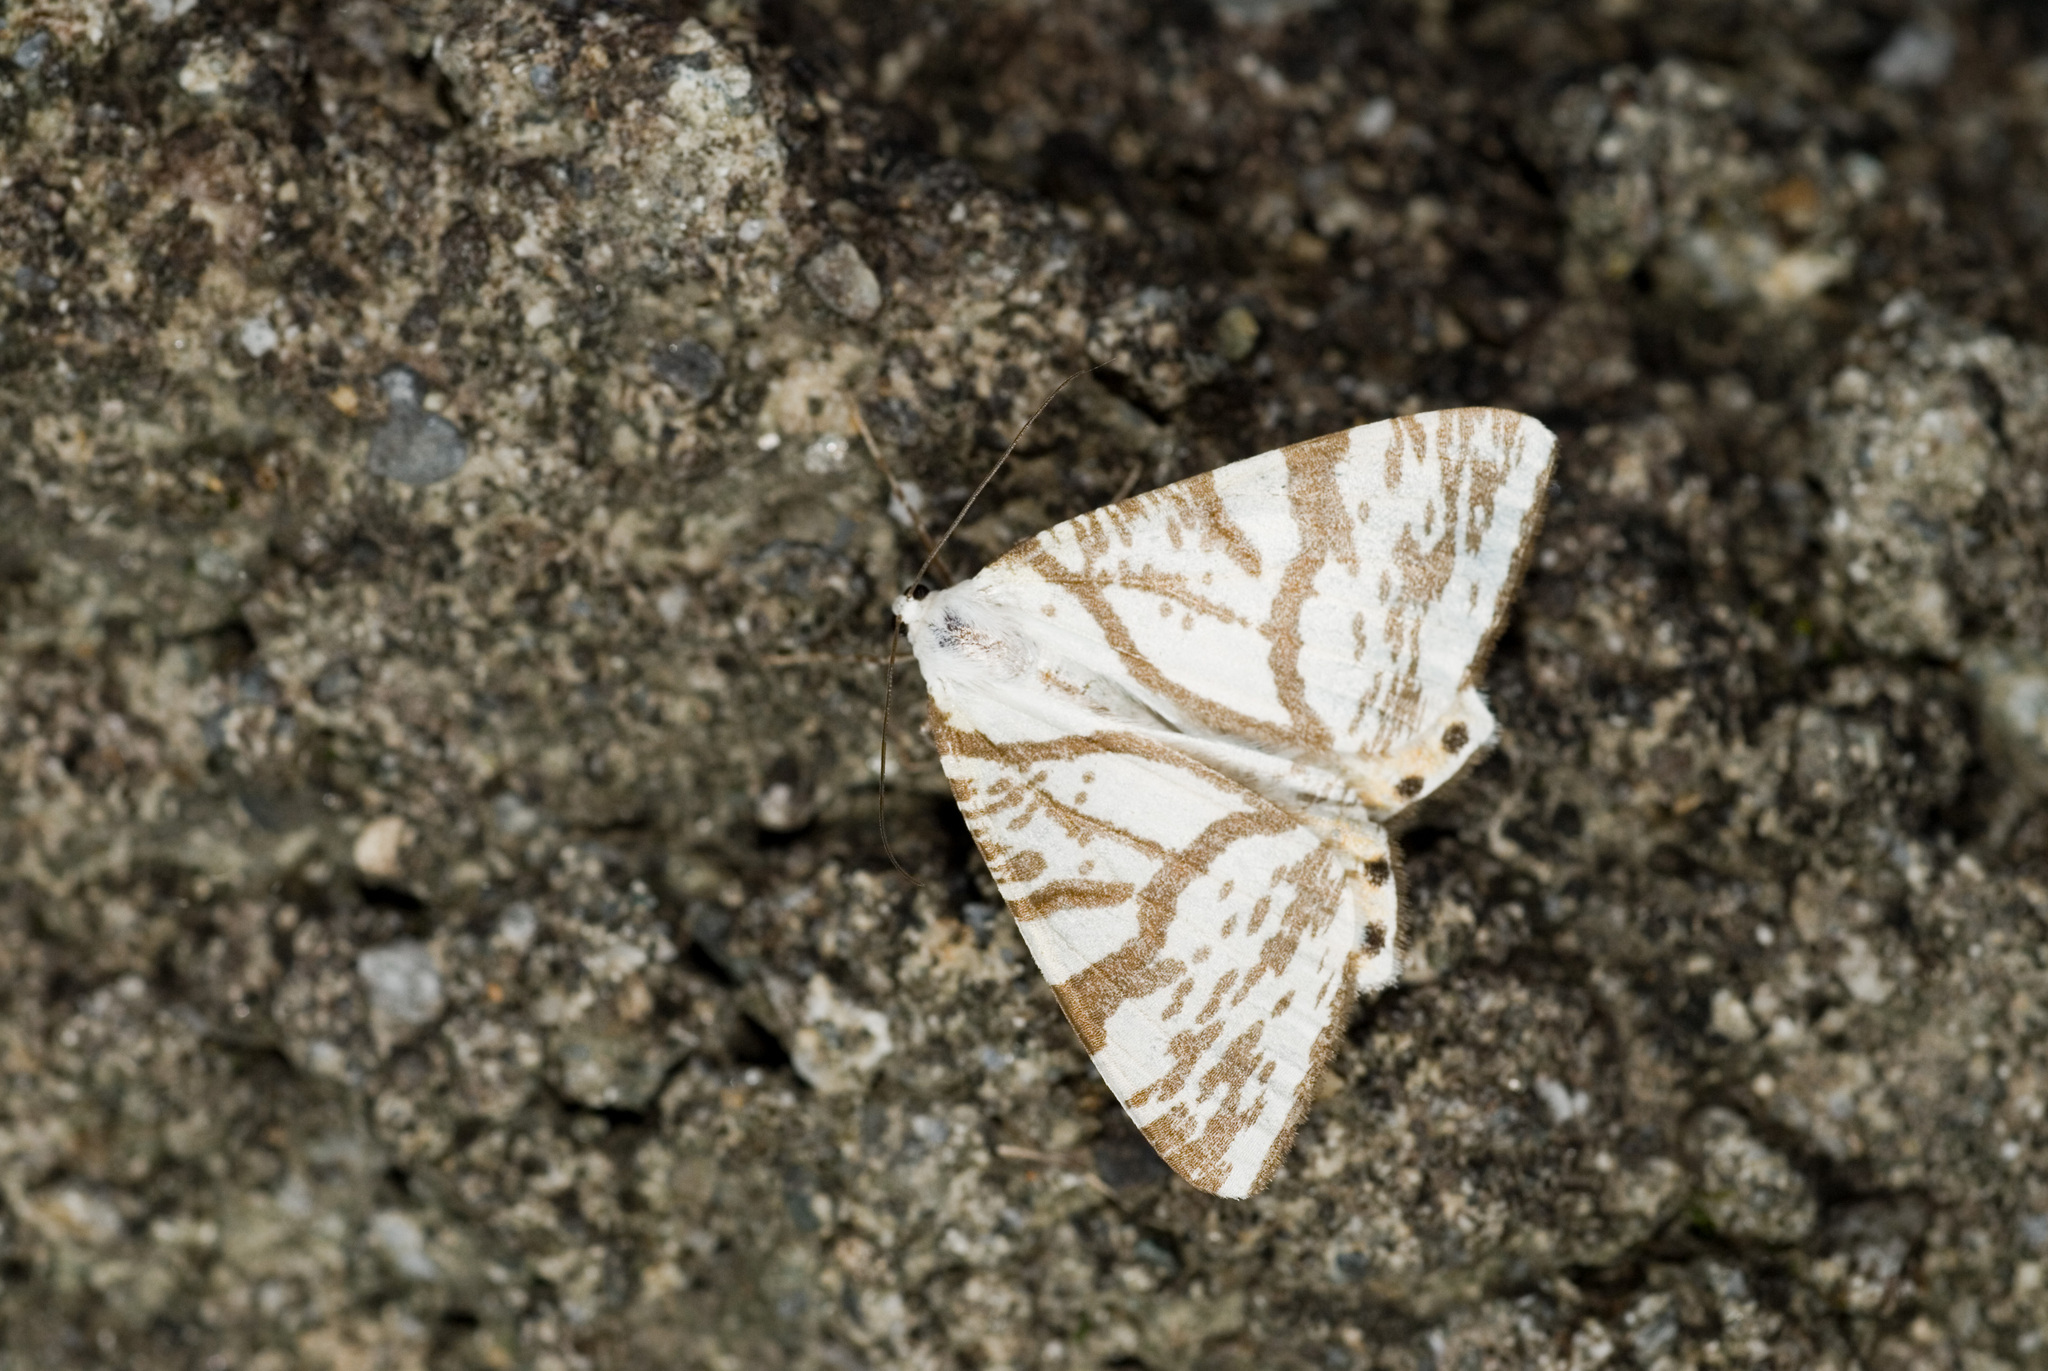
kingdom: Animalia
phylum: Arthropoda
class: Insecta
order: Lepidoptera
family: Geometridae
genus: Ourapteryx
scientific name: Ourapteryx ramosa
